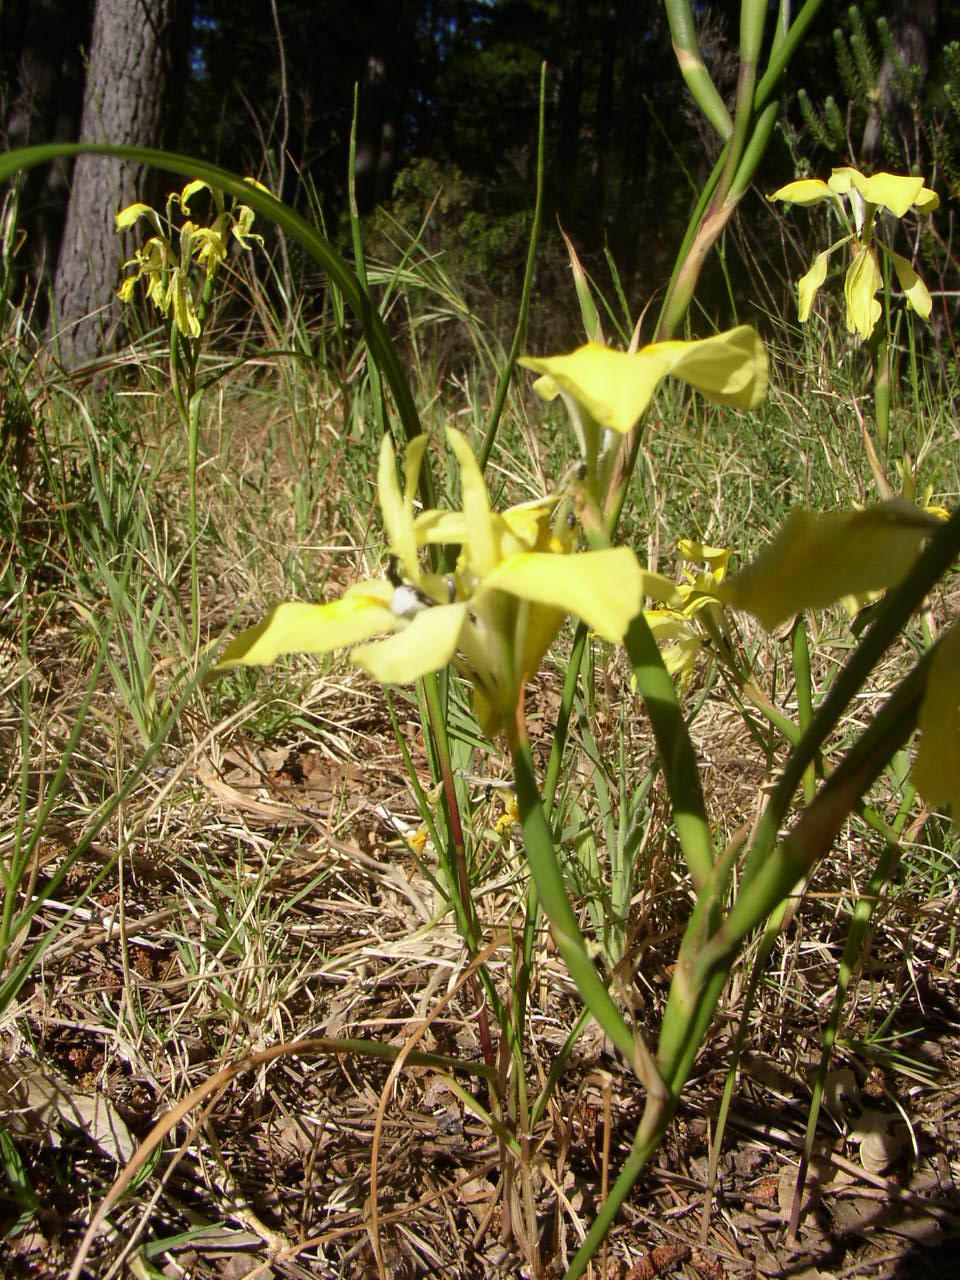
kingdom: Plantae
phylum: Tracheophyta
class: Liliopsida
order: Asparagales
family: Iridaceae
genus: Moraea
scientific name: Moraea fugax
